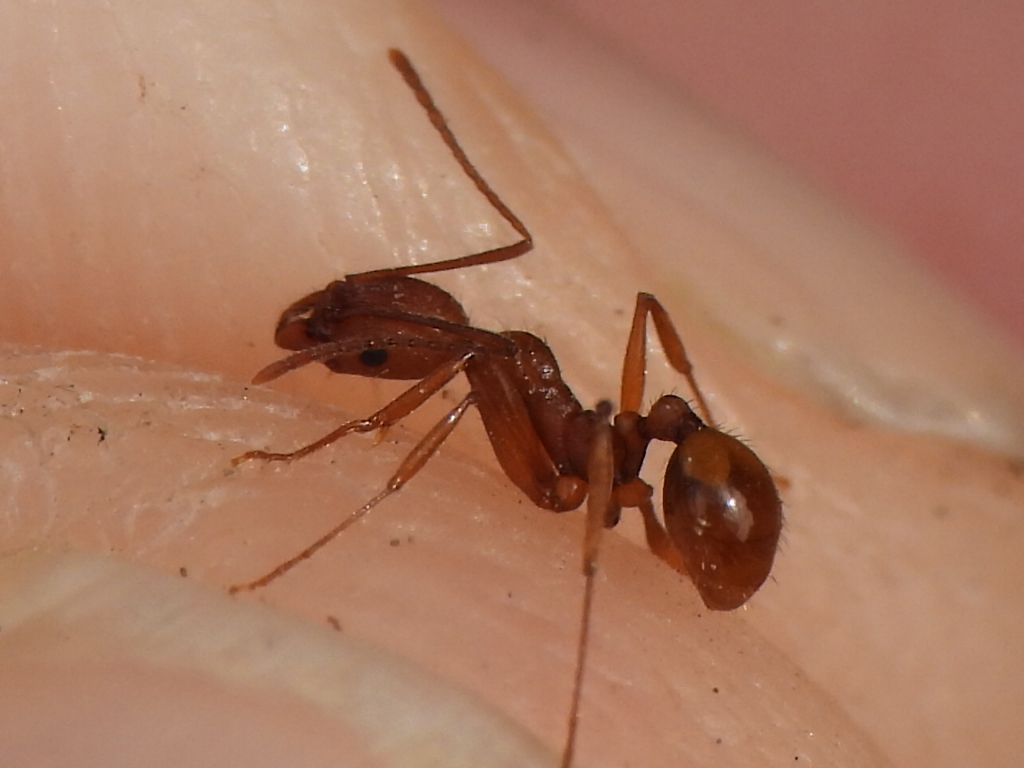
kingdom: Animalia
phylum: Arthropoda
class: Insecta
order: Hymenoptera
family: Formicidae
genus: Aphaenogaster
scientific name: Aphaenogaster texana
